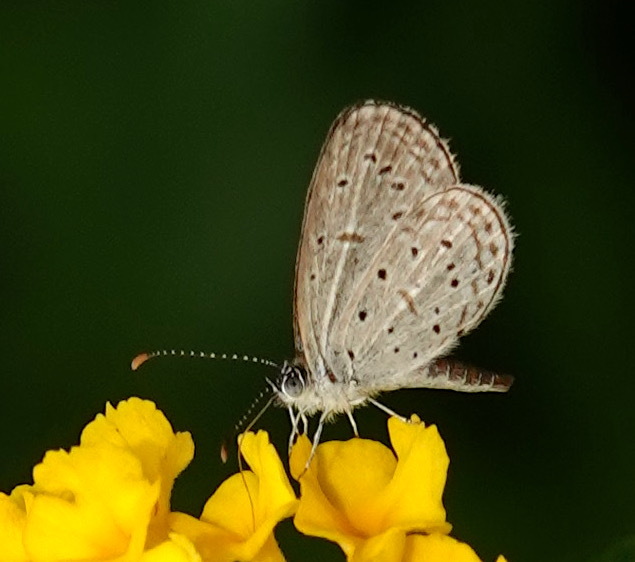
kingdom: Animalia
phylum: Arthropoda
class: Insecta
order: Lepidoptera
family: Lycaenidae
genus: Zizula
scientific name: Zizula hylax
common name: Gaika blue
